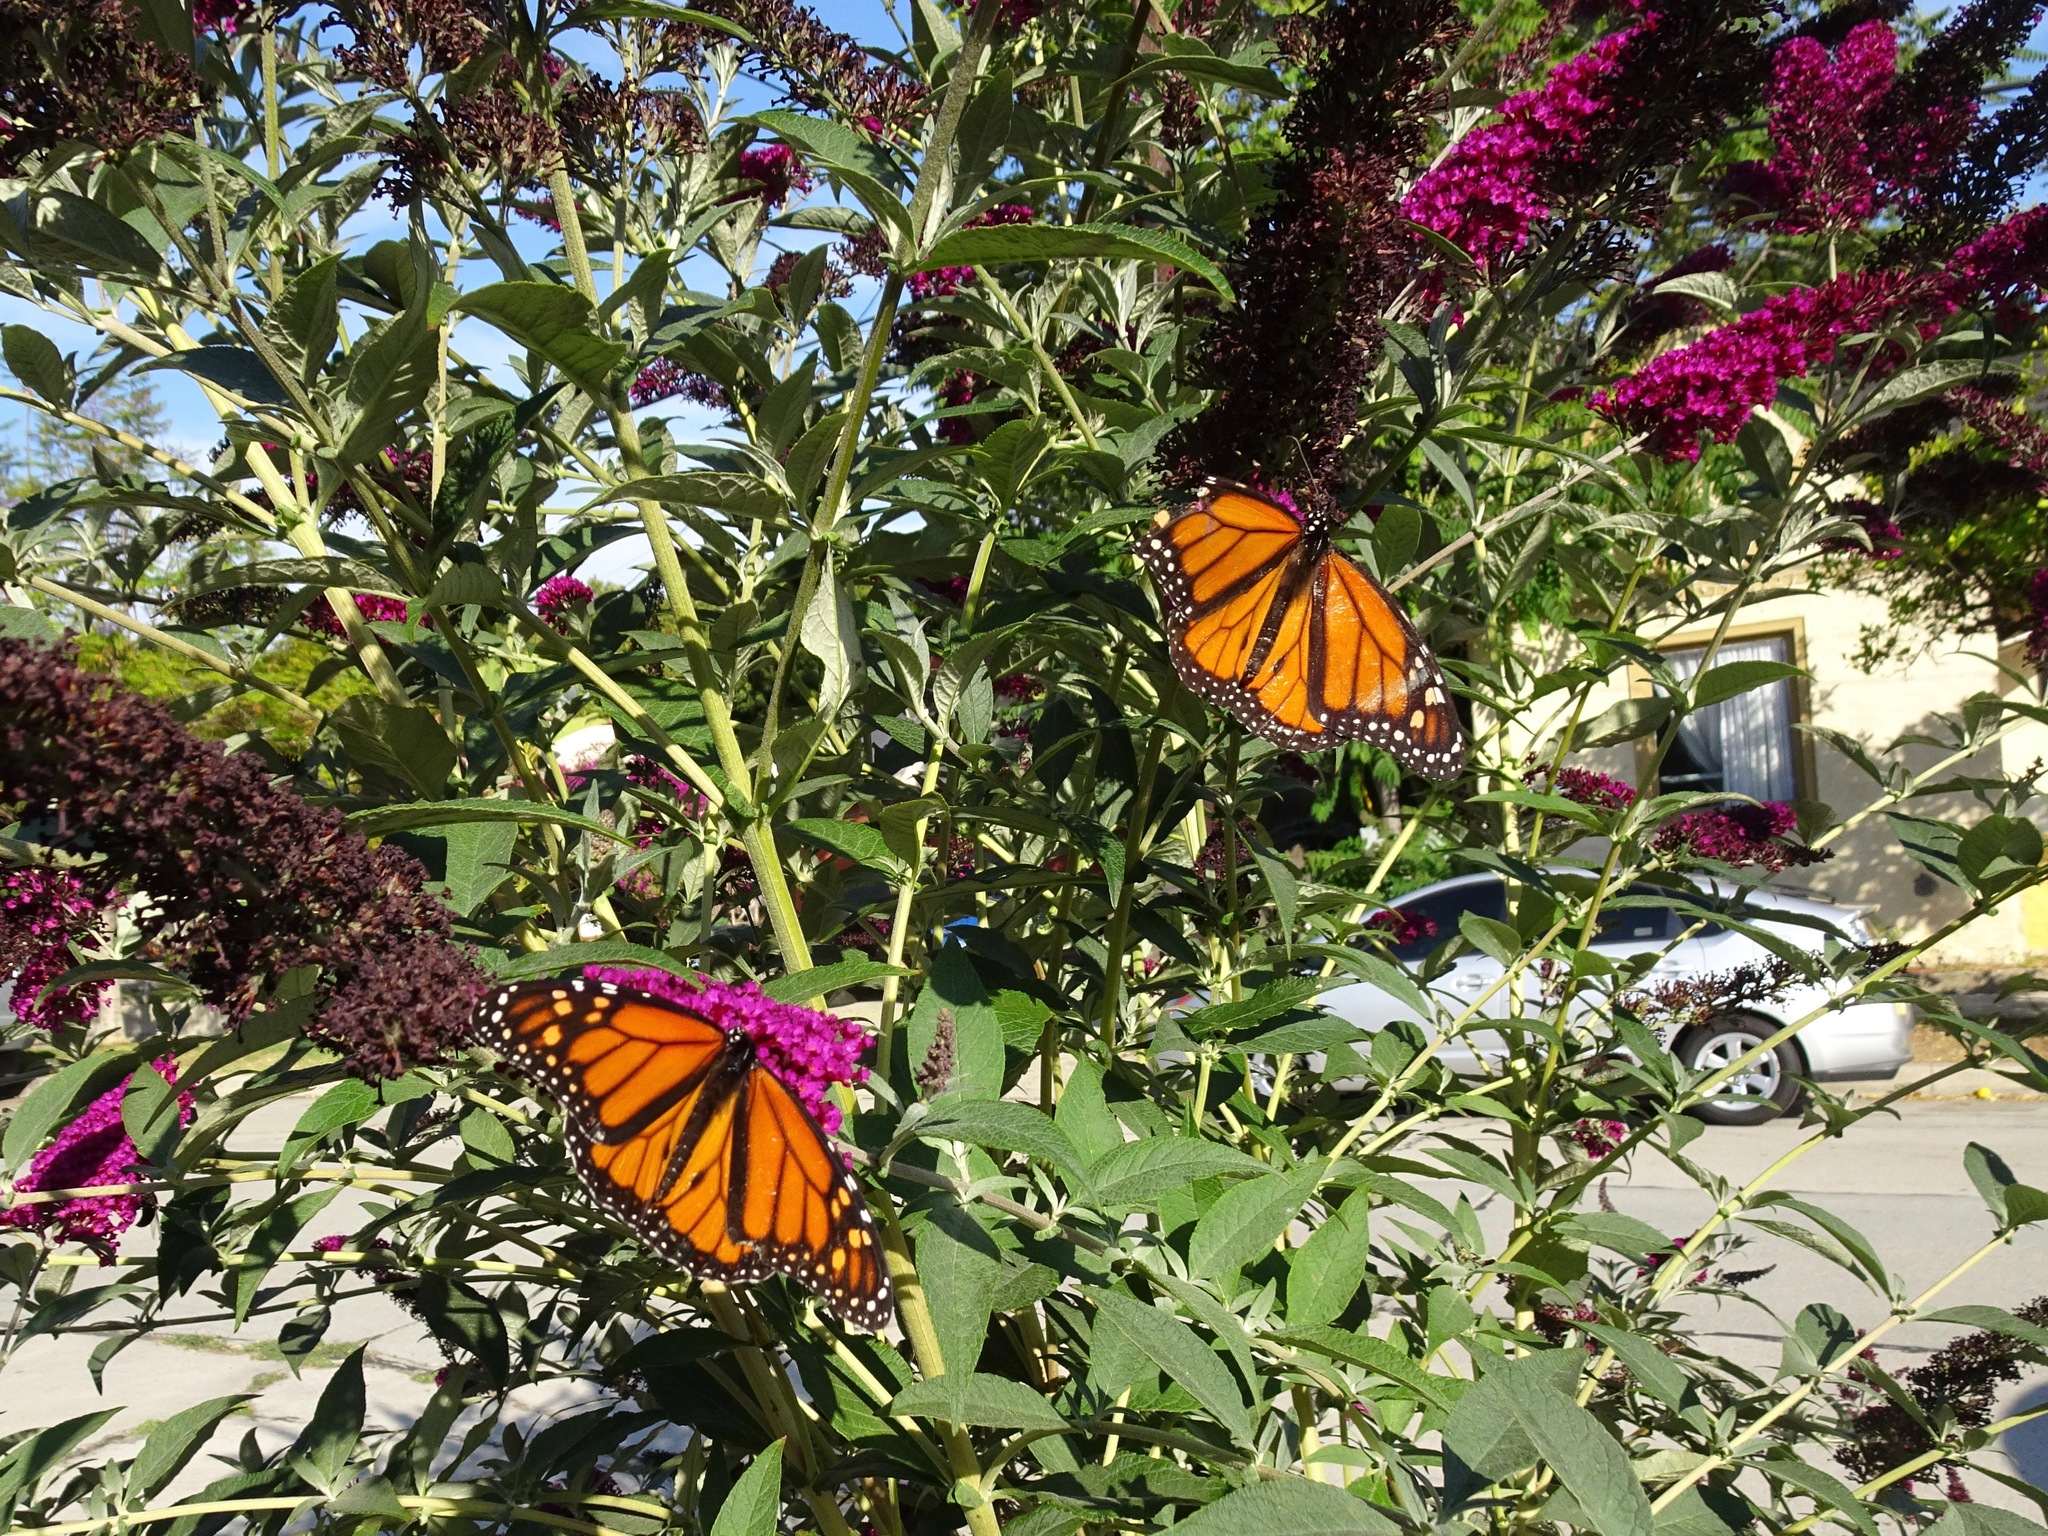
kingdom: Animalia
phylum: Arthropoda
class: Insecta
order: Lepidoptera
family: Nymphalidae
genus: Danaus
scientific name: Danaus plexippus
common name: Monarch
